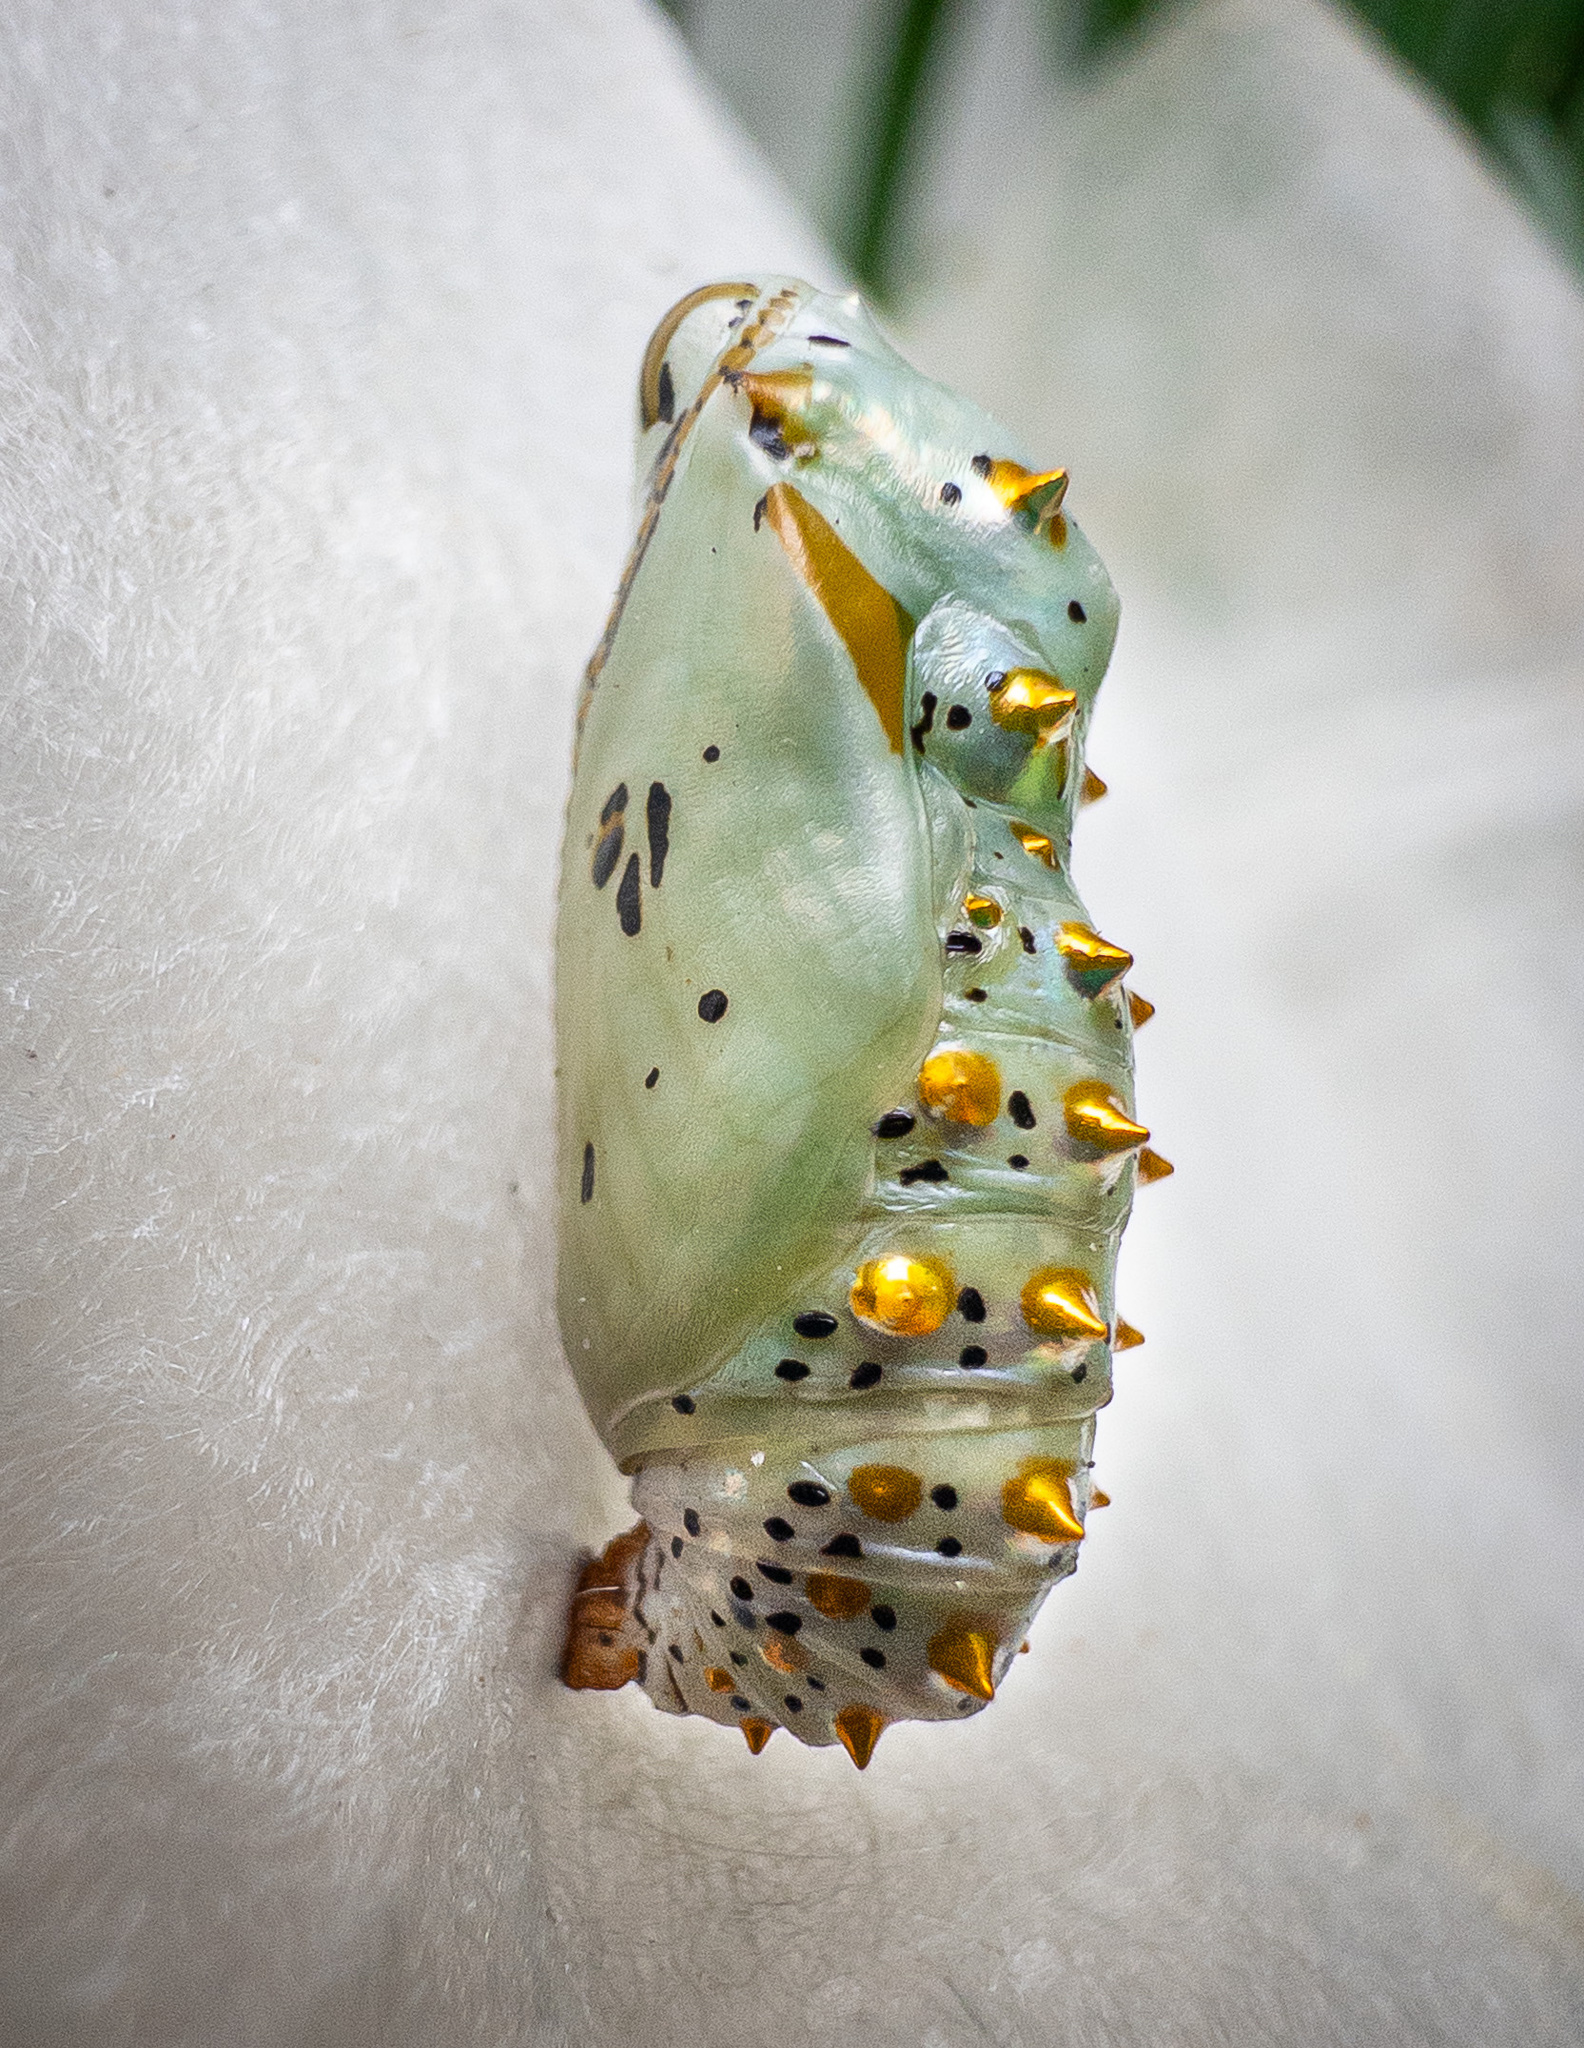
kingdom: Animalia
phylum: Arthropoda
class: Insecta
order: Lepidoptera
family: Nymphalidae
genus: Euptoieta
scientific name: Euptoieta claudia
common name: Variegated fritillary
